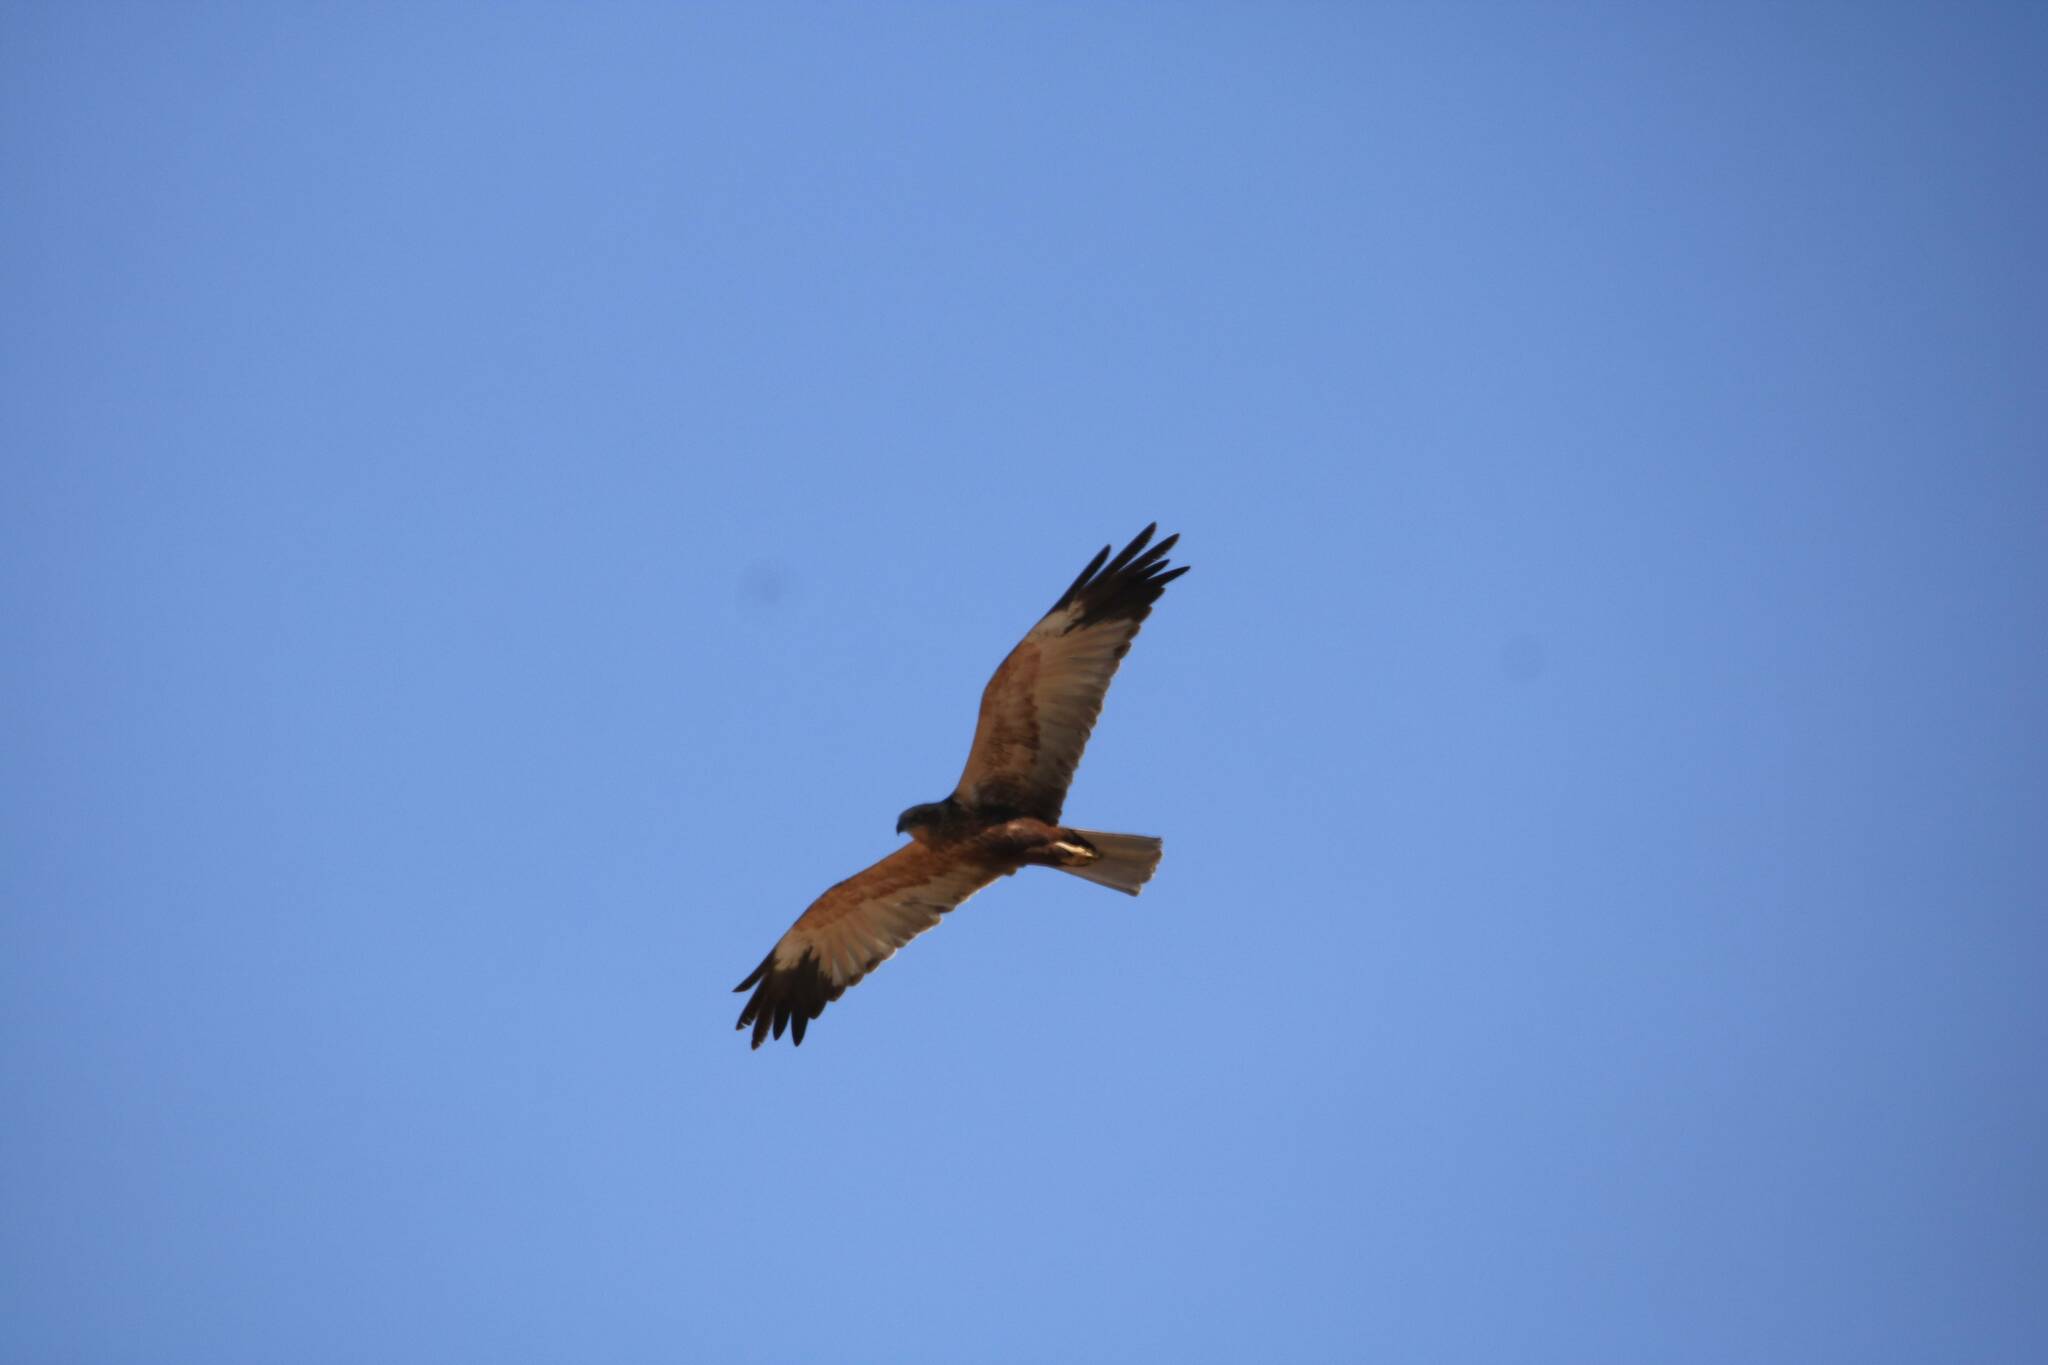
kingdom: Animalia
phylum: Chordata
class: Aves
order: Accipitriformes
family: Accipitridae
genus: Circus
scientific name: Circus aeruginosus
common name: Western marsh harrier
